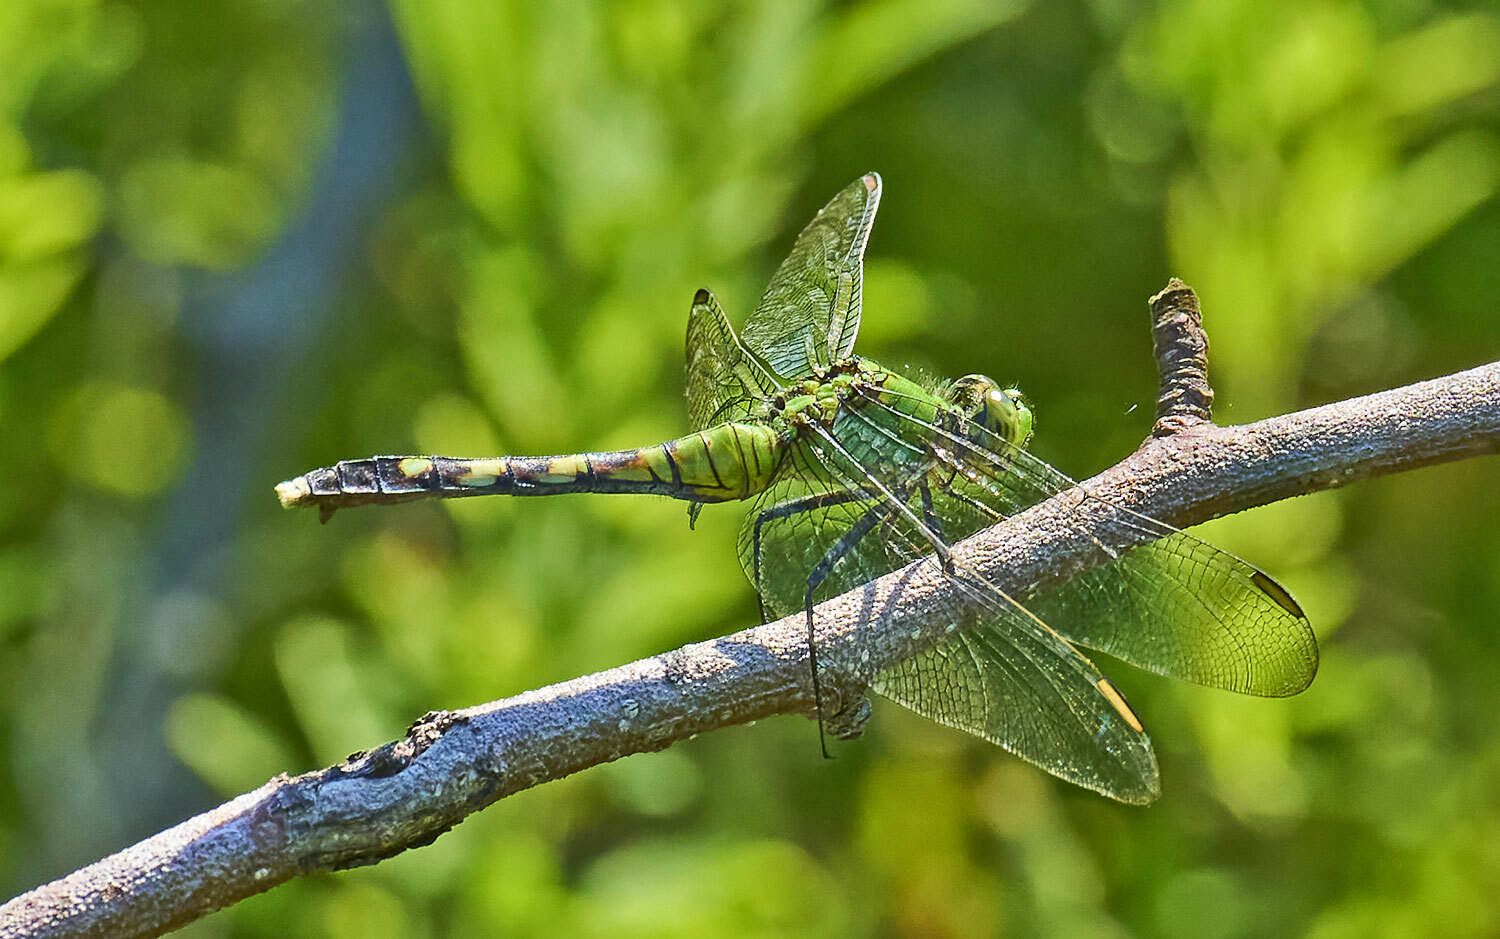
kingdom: Animalia
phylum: Arthropoda
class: Insecta
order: Odonata
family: Libellulidae
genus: Erythemis
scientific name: Erythemis simplicicollis
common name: Eastern pondhawk
